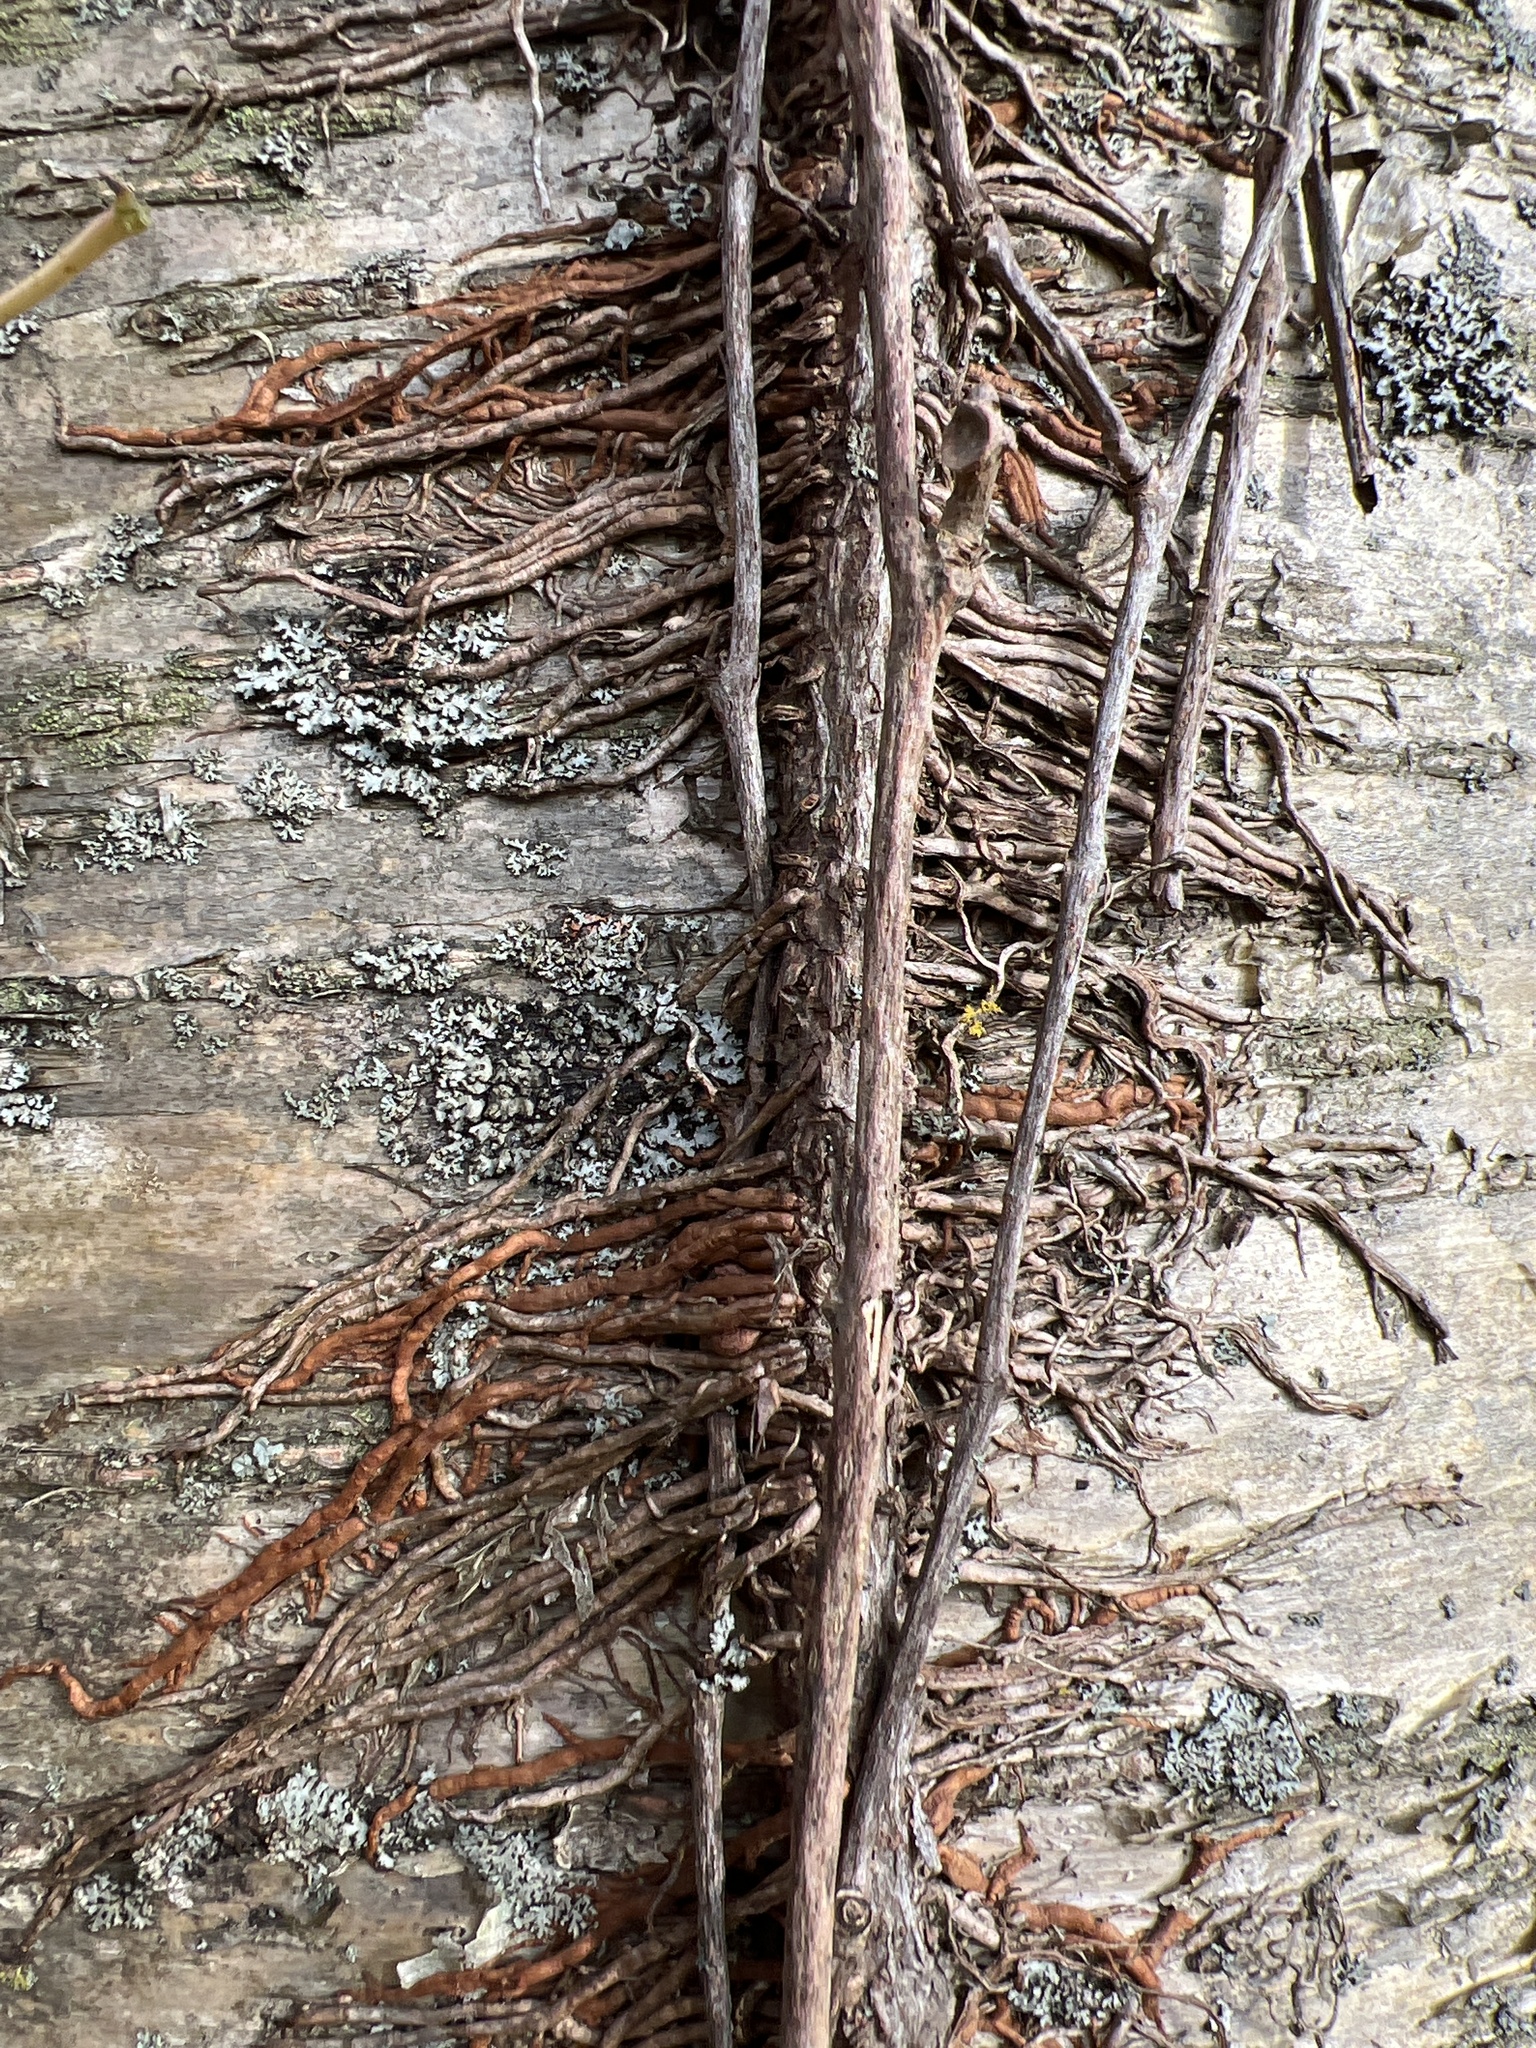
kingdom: Plantae
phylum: Tracheophyta
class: Magnoliopsida
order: Sapindales
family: Anacardiaceae
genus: Toxicodendron
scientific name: Toxicodendron radicans
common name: Poison ivy
